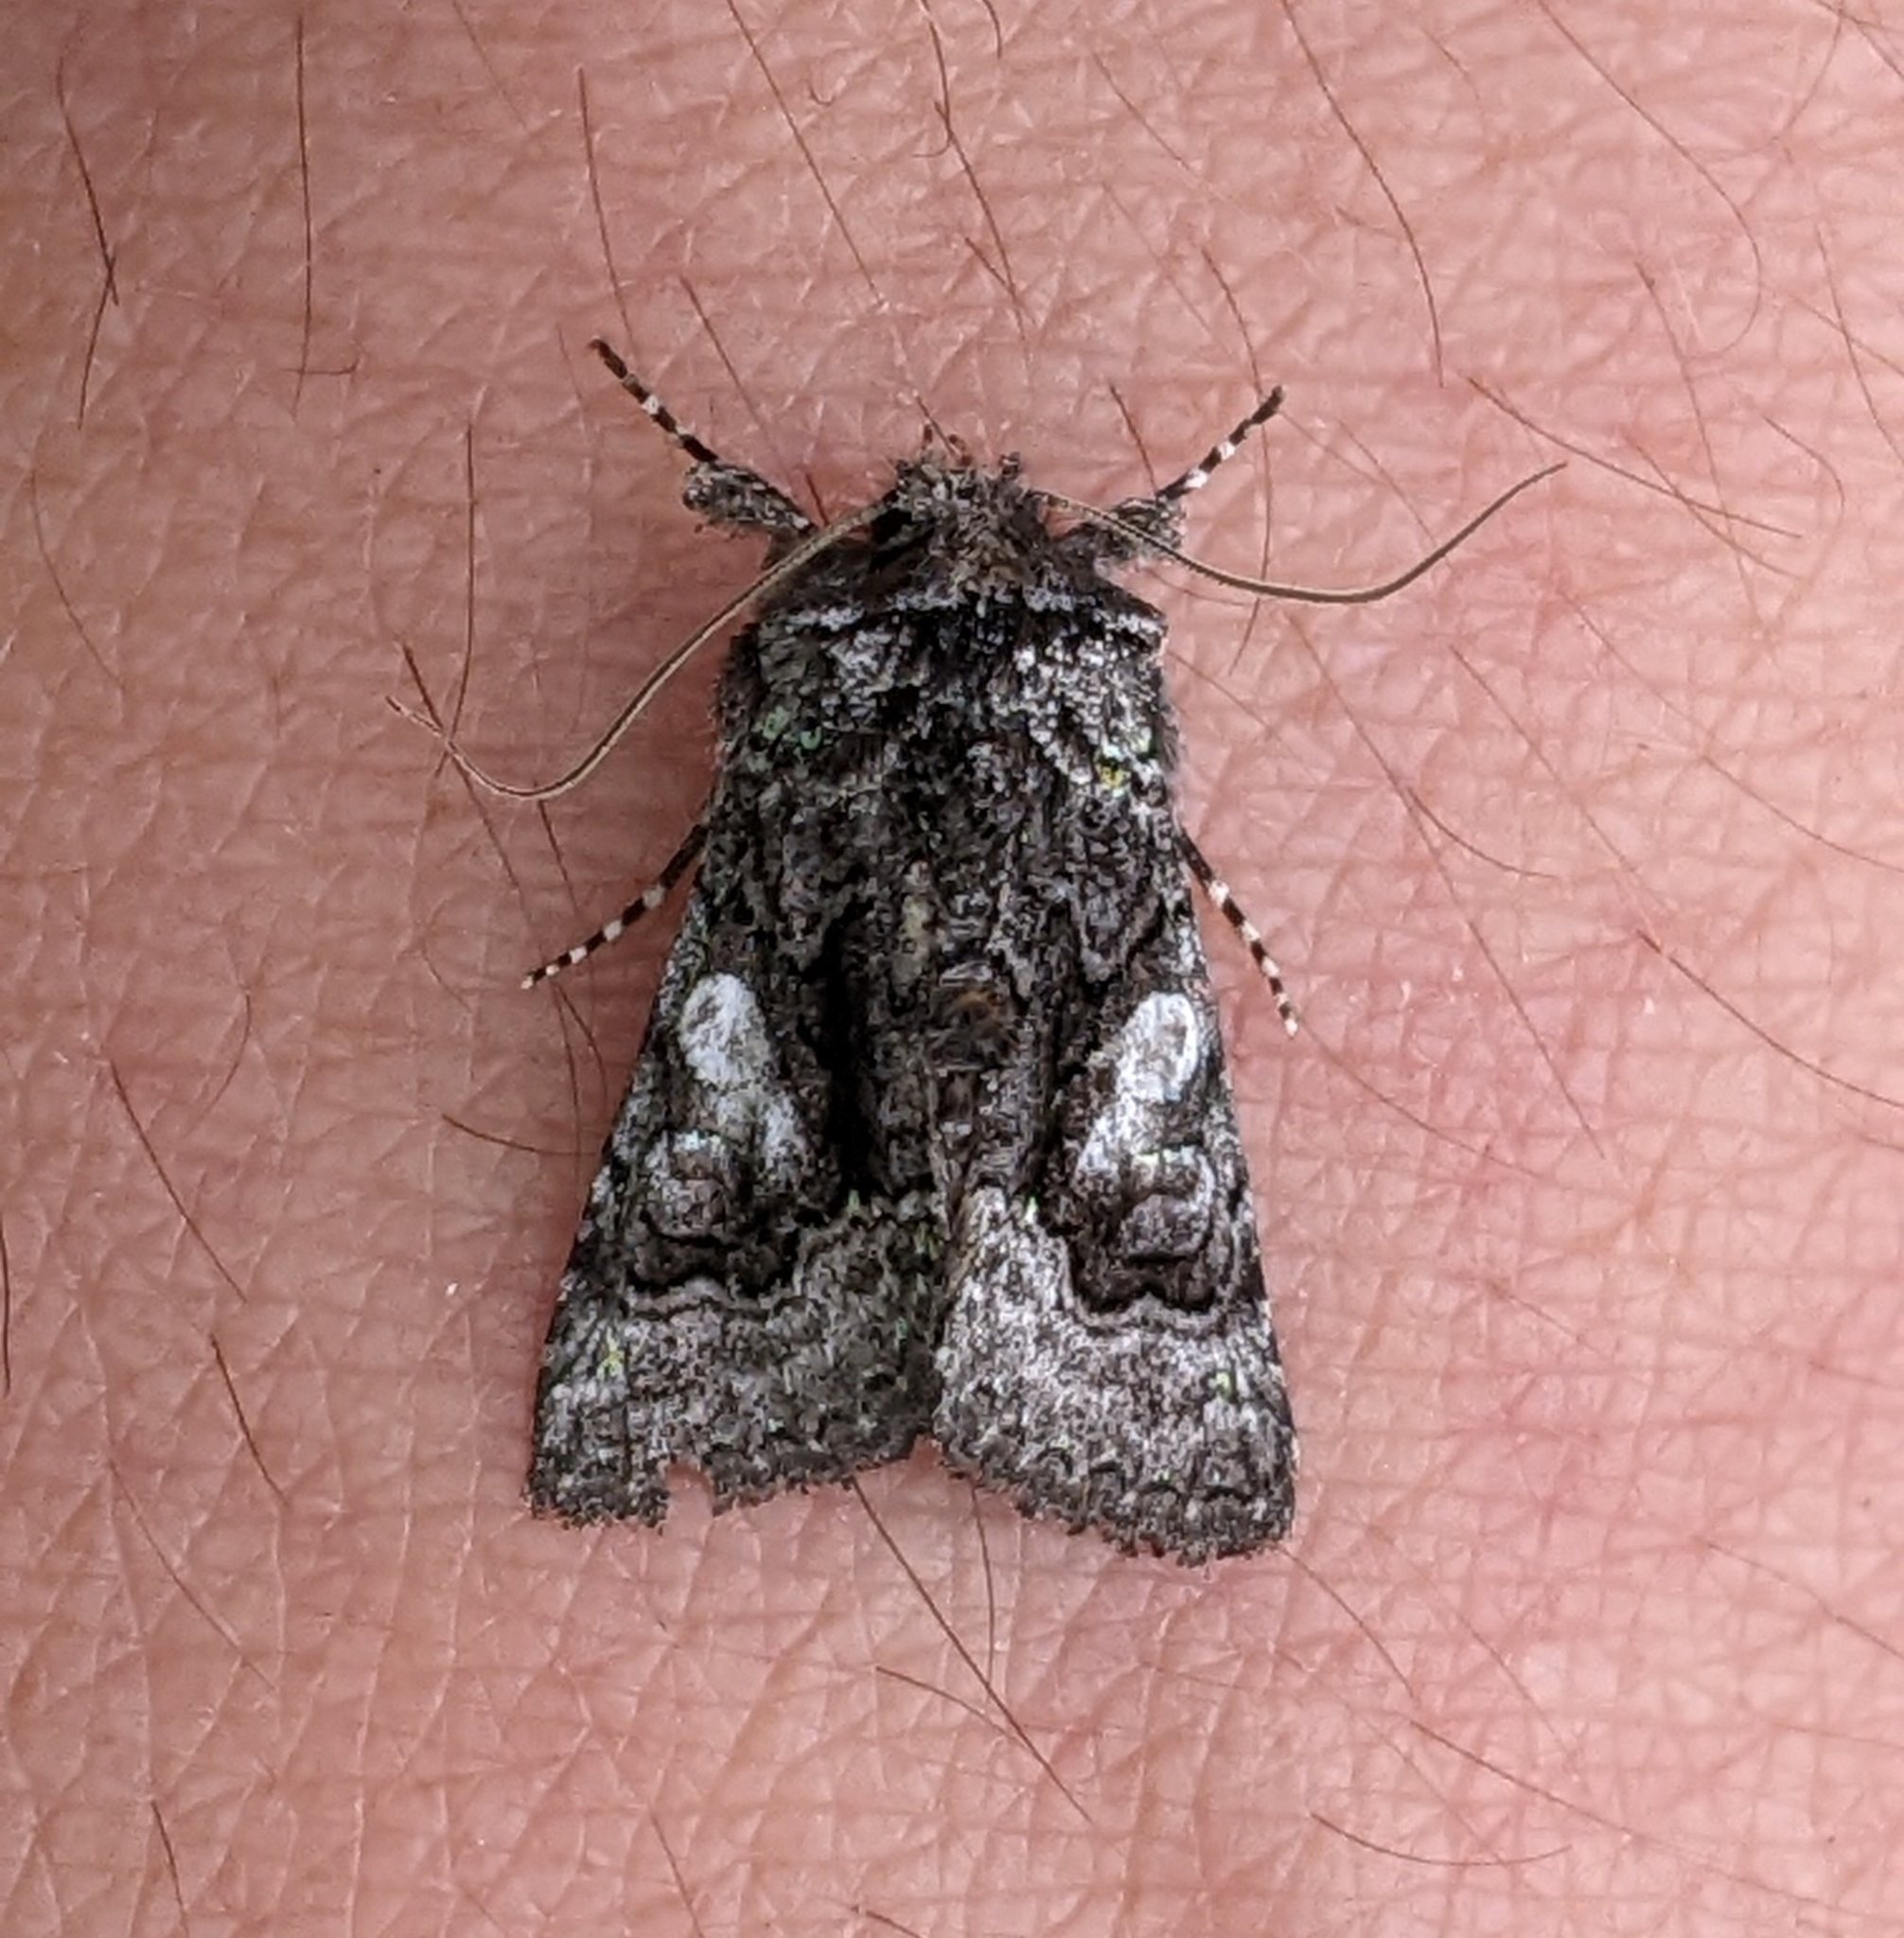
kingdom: Animalia
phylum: Arthropoda
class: Insecta
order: Lepidoptera
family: Noctuidae
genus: Behrensia
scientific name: Behrensia conchiformis
